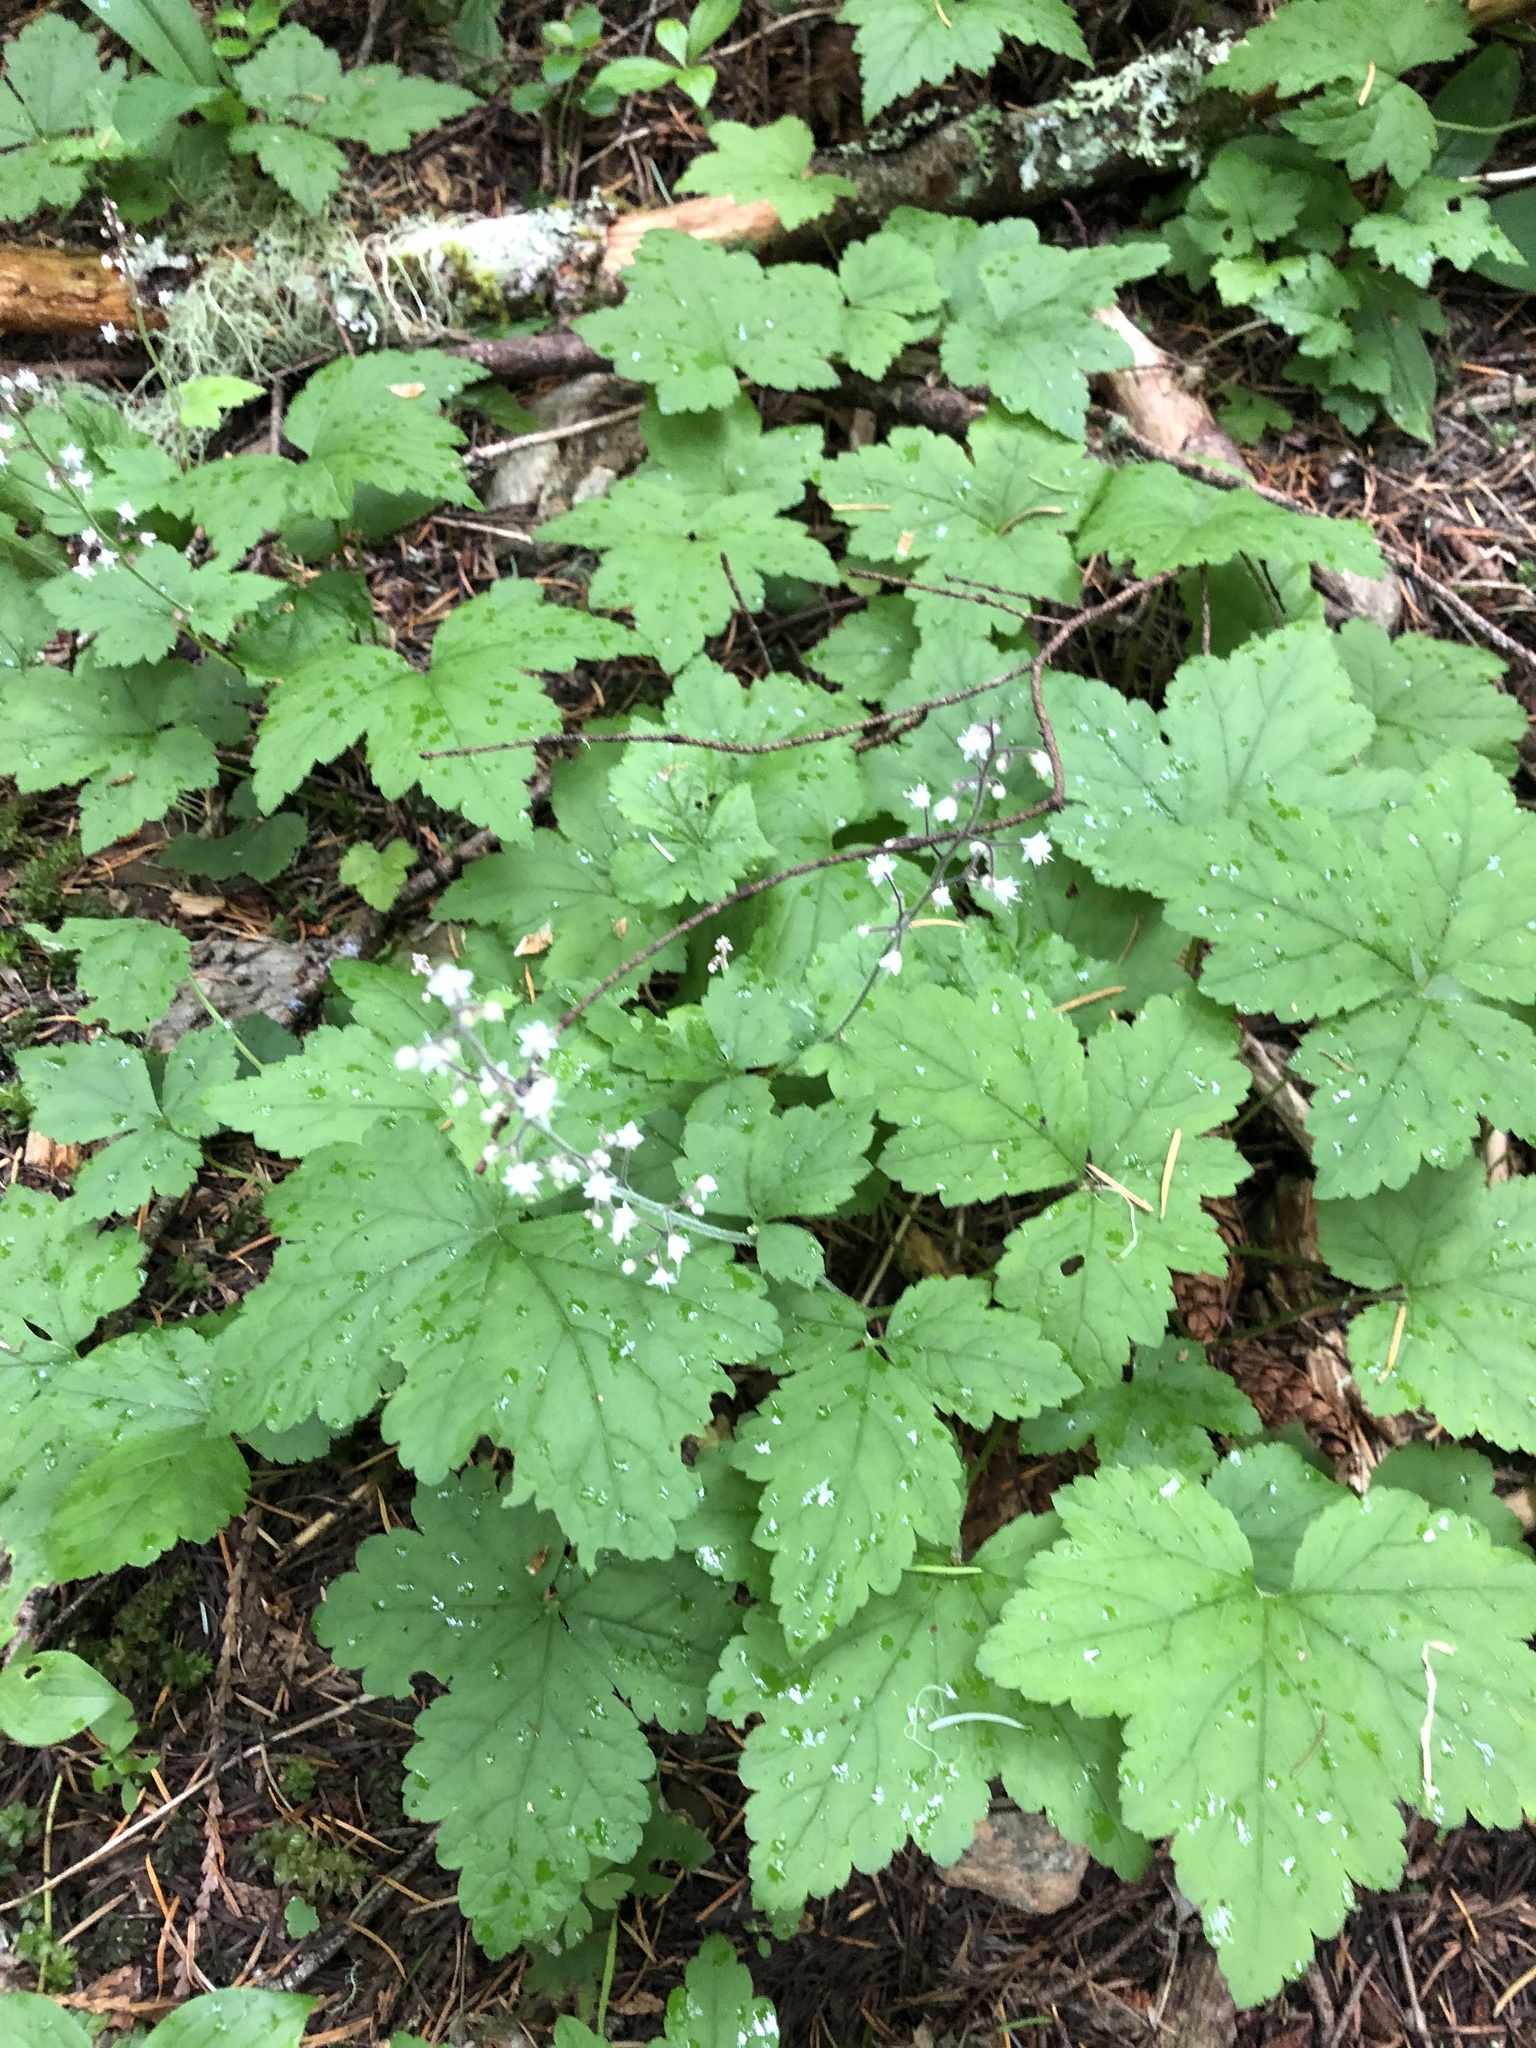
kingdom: Plantae
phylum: Tracheophyta
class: Magnoliopsida
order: Saxifragales
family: Saxifragaceae
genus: Tiarella
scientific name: Tiarella trifoliata
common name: Sugar-scoop
